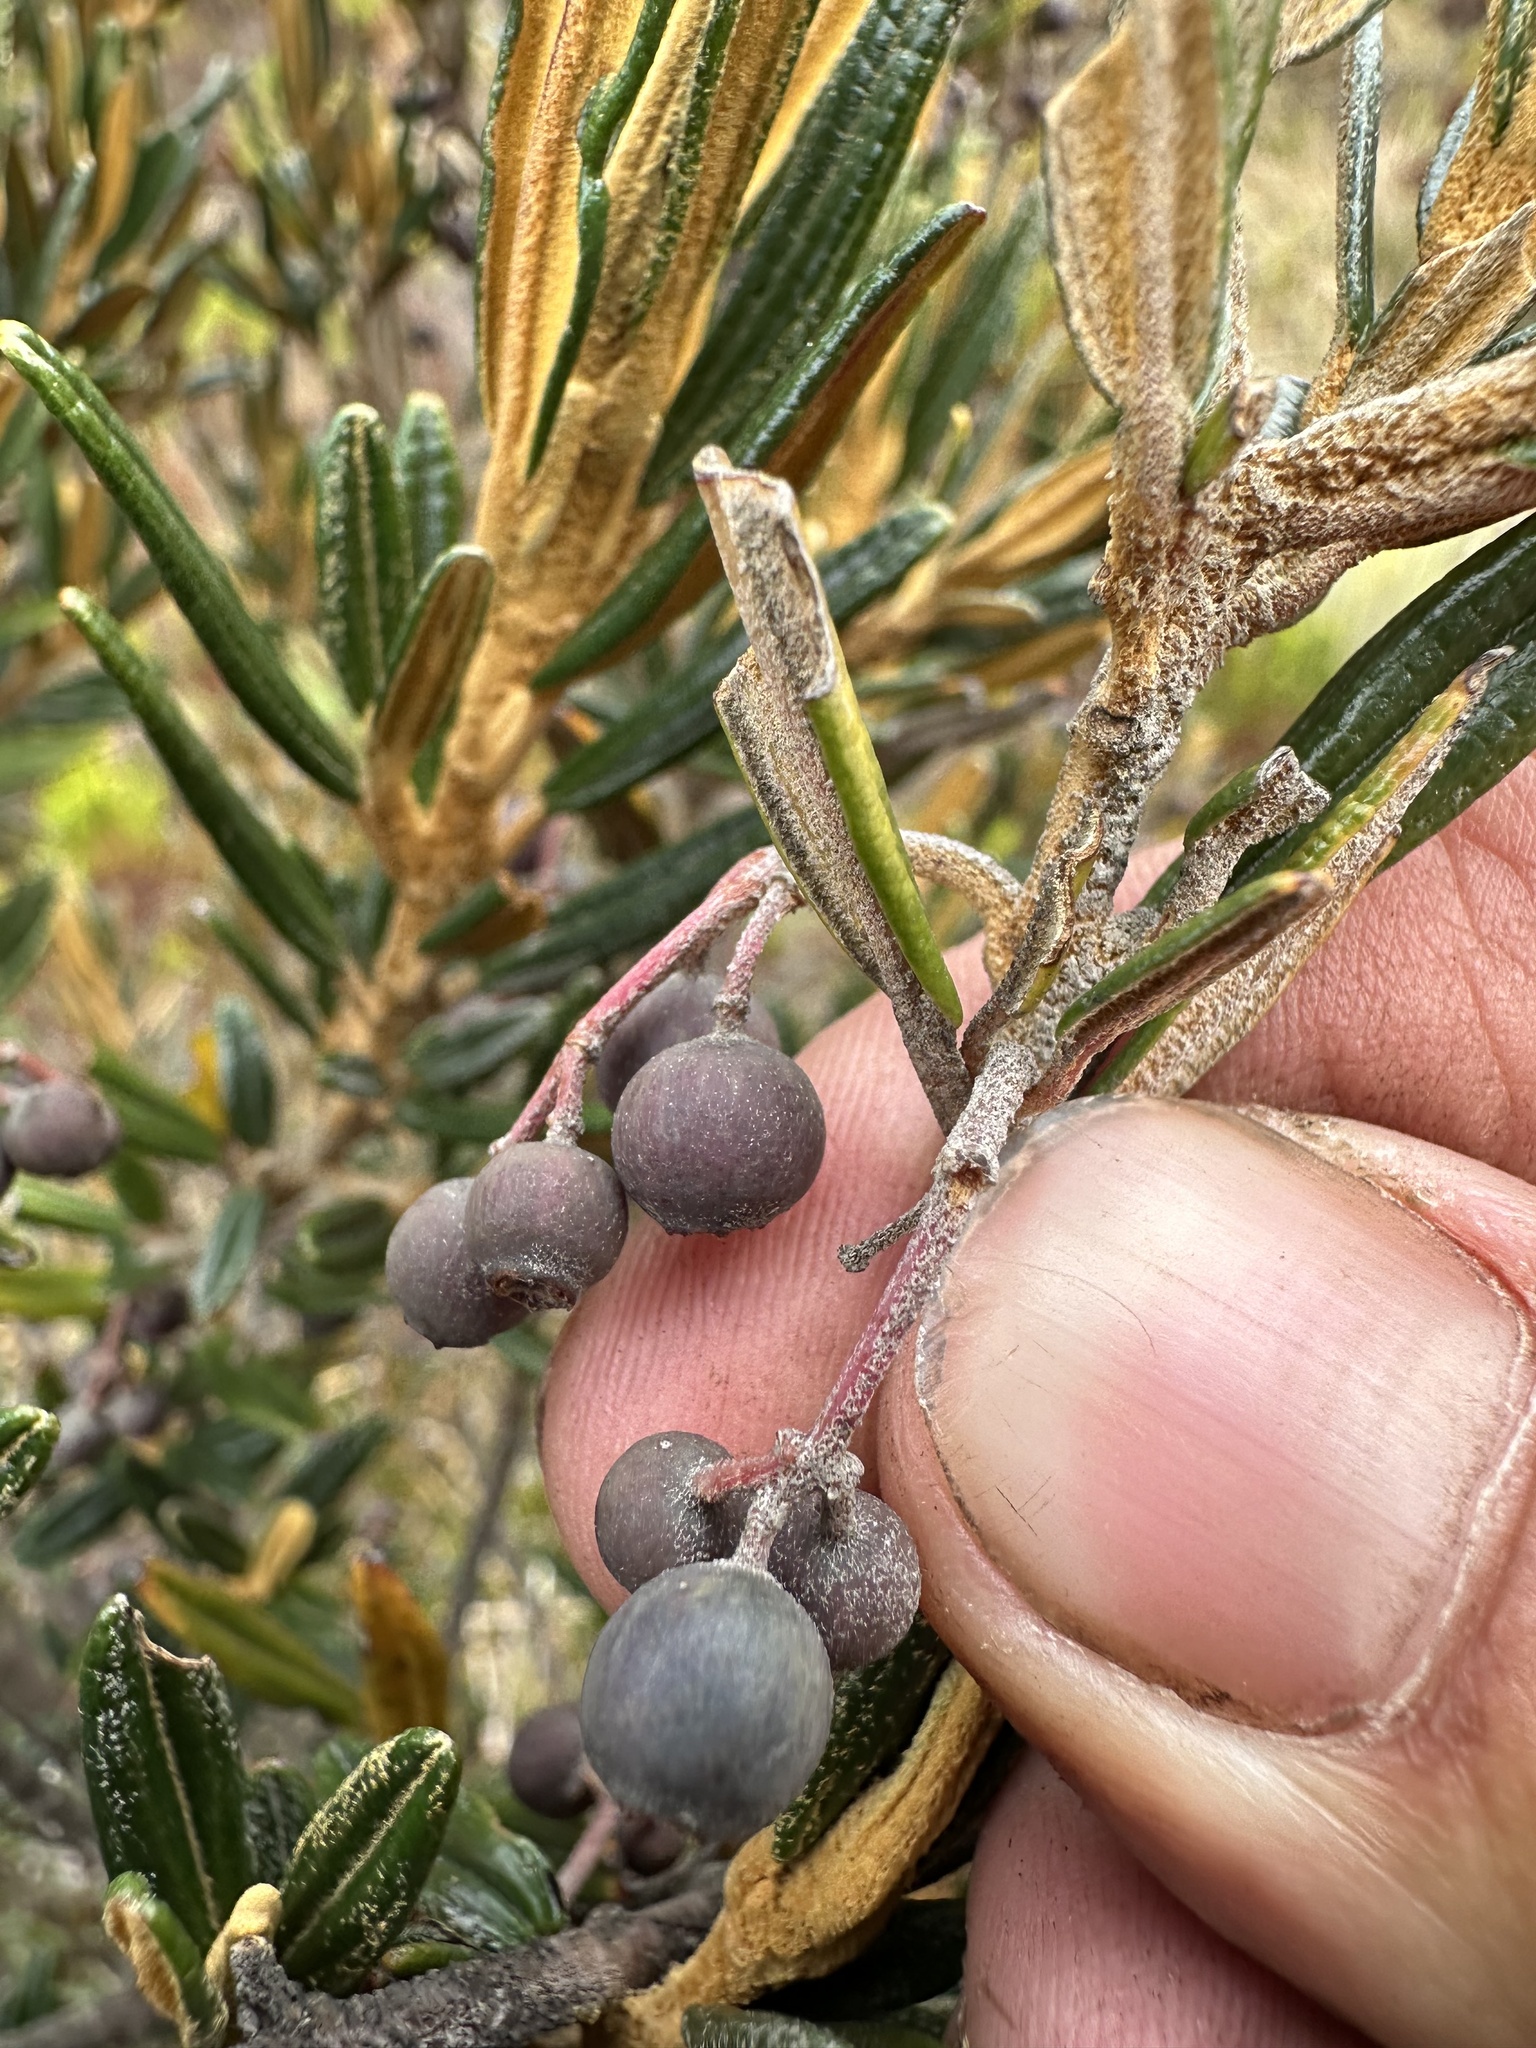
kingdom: Plantae
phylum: Tracheophyta
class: Magnoliopsida
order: Myrtales
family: Melastomataceae
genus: Miconia
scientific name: Miconia salicifolia
